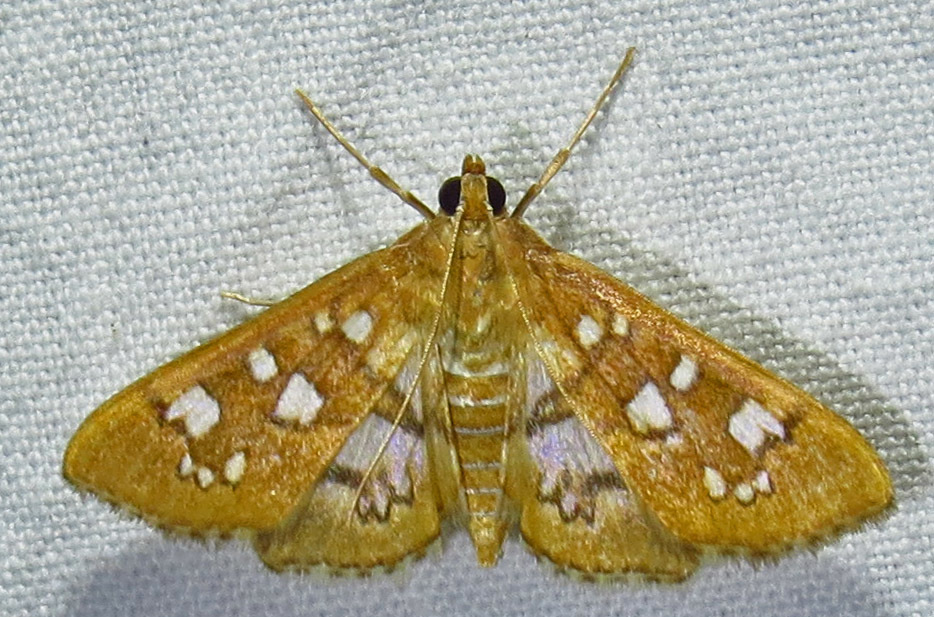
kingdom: Animalia
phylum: Arthropoda
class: Insecta
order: Lepidoptera
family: Crambidae
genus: Samea
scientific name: Samea baccatalis
